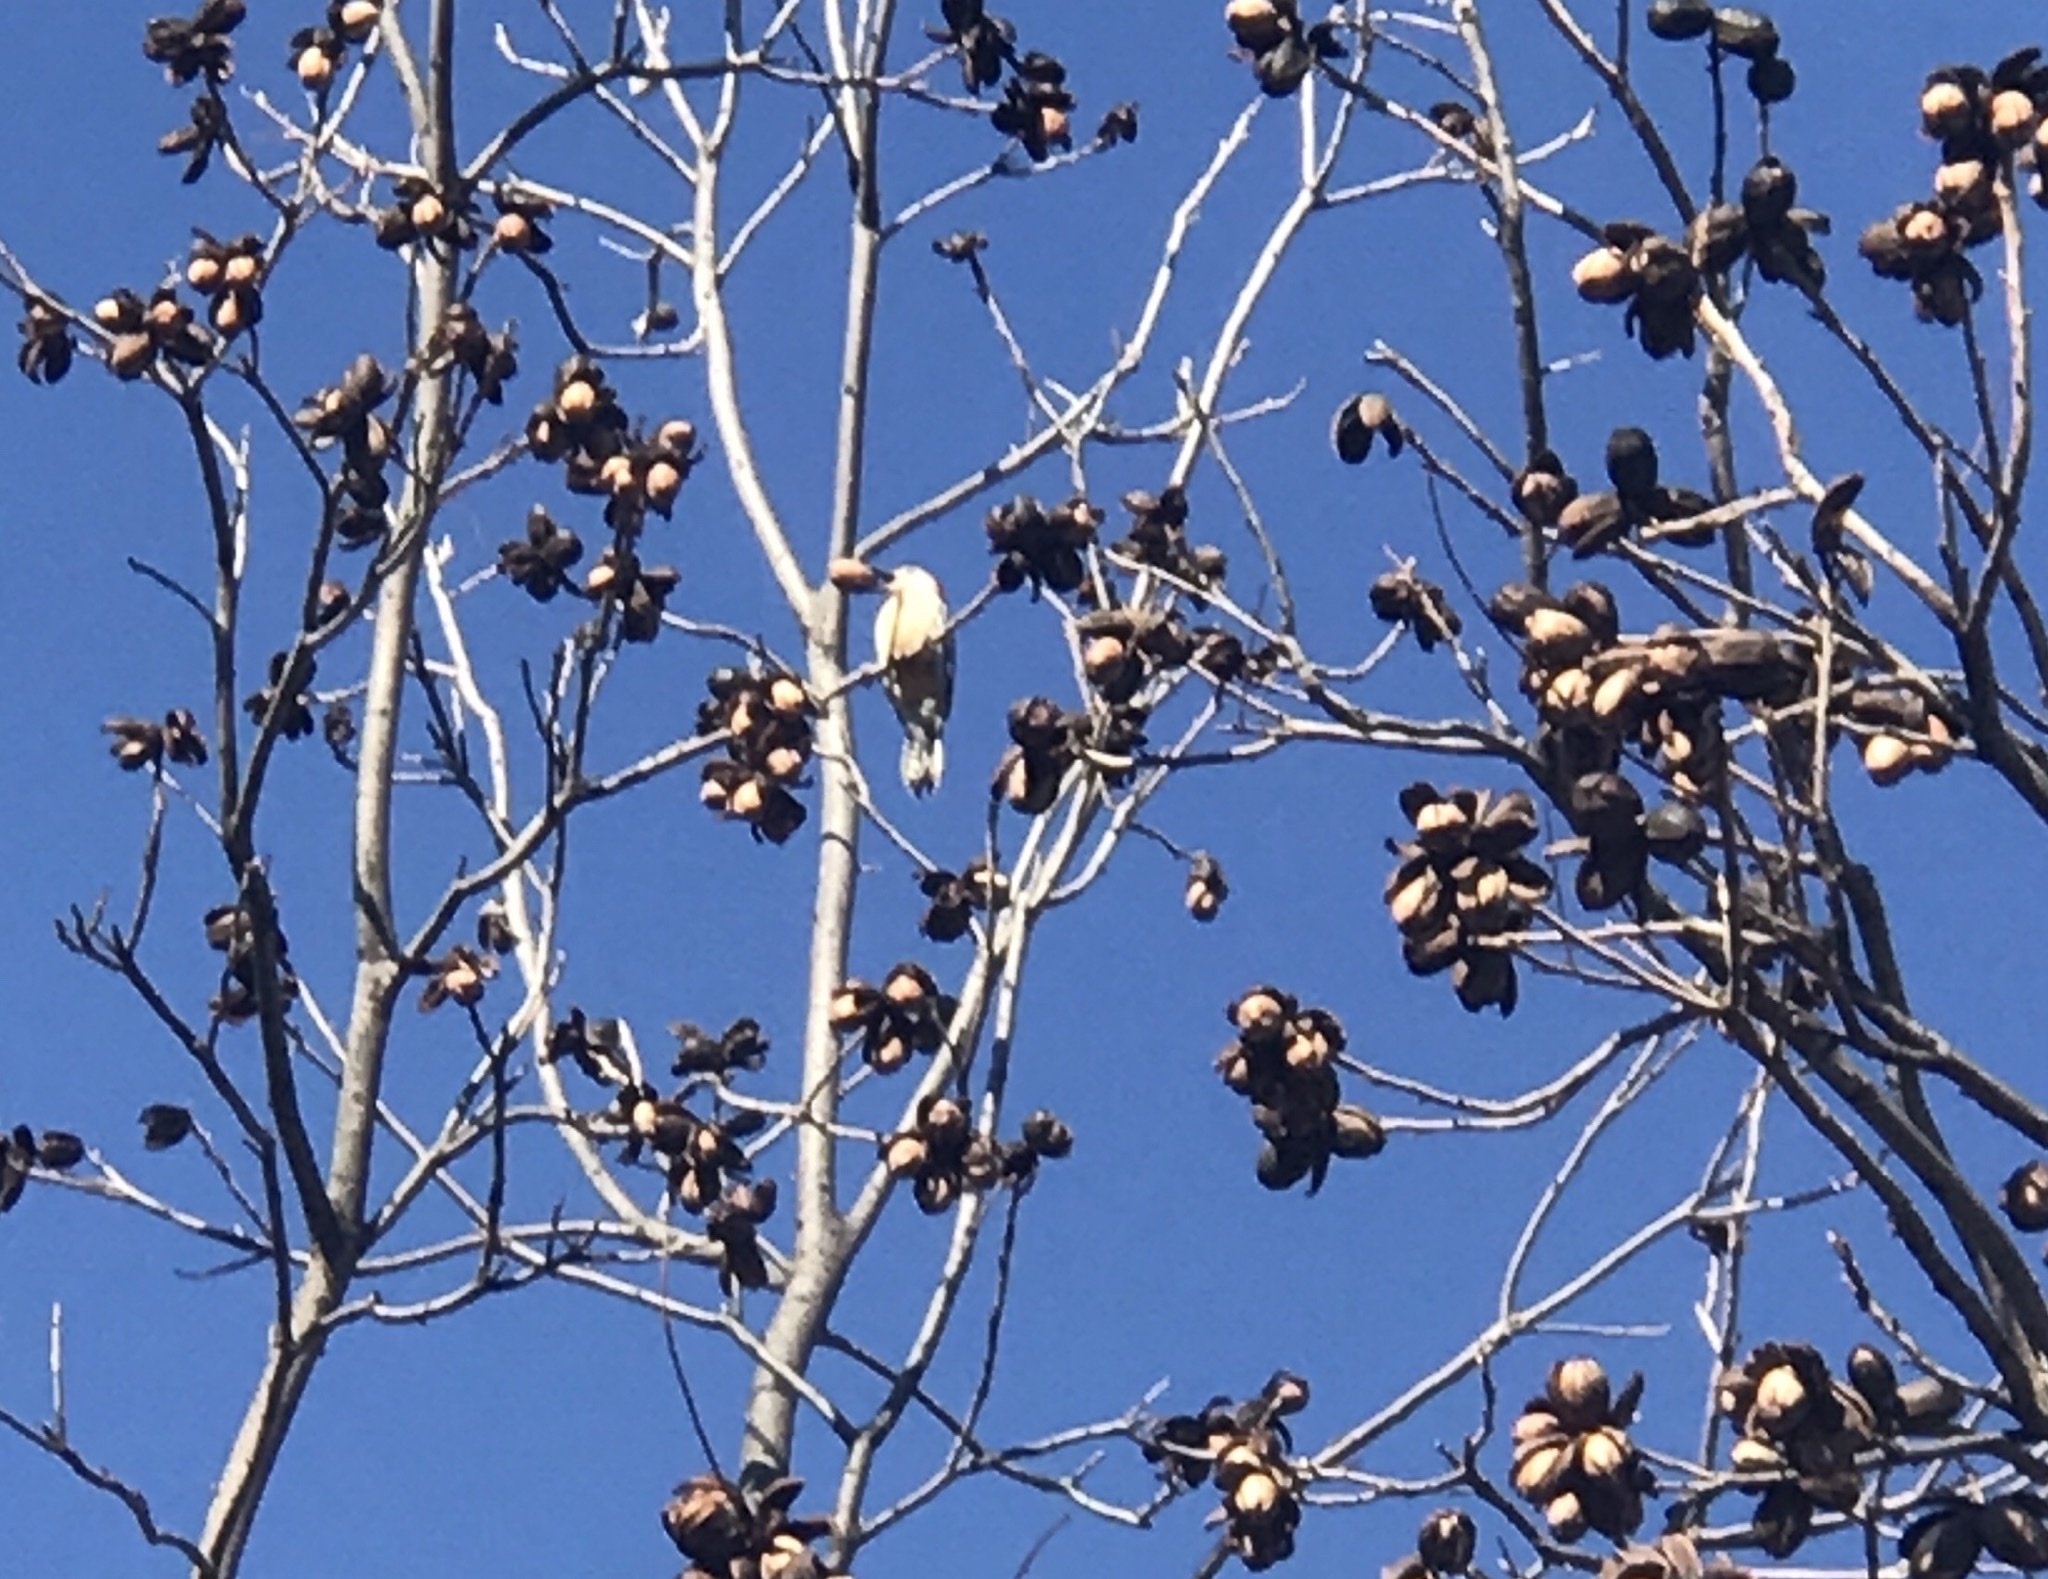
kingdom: Animalia
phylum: Chordata
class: Aves
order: Piciformes
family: Picidae
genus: Melanerpes
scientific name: Melanerpes carolinus
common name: Red-bellied woodpecker
